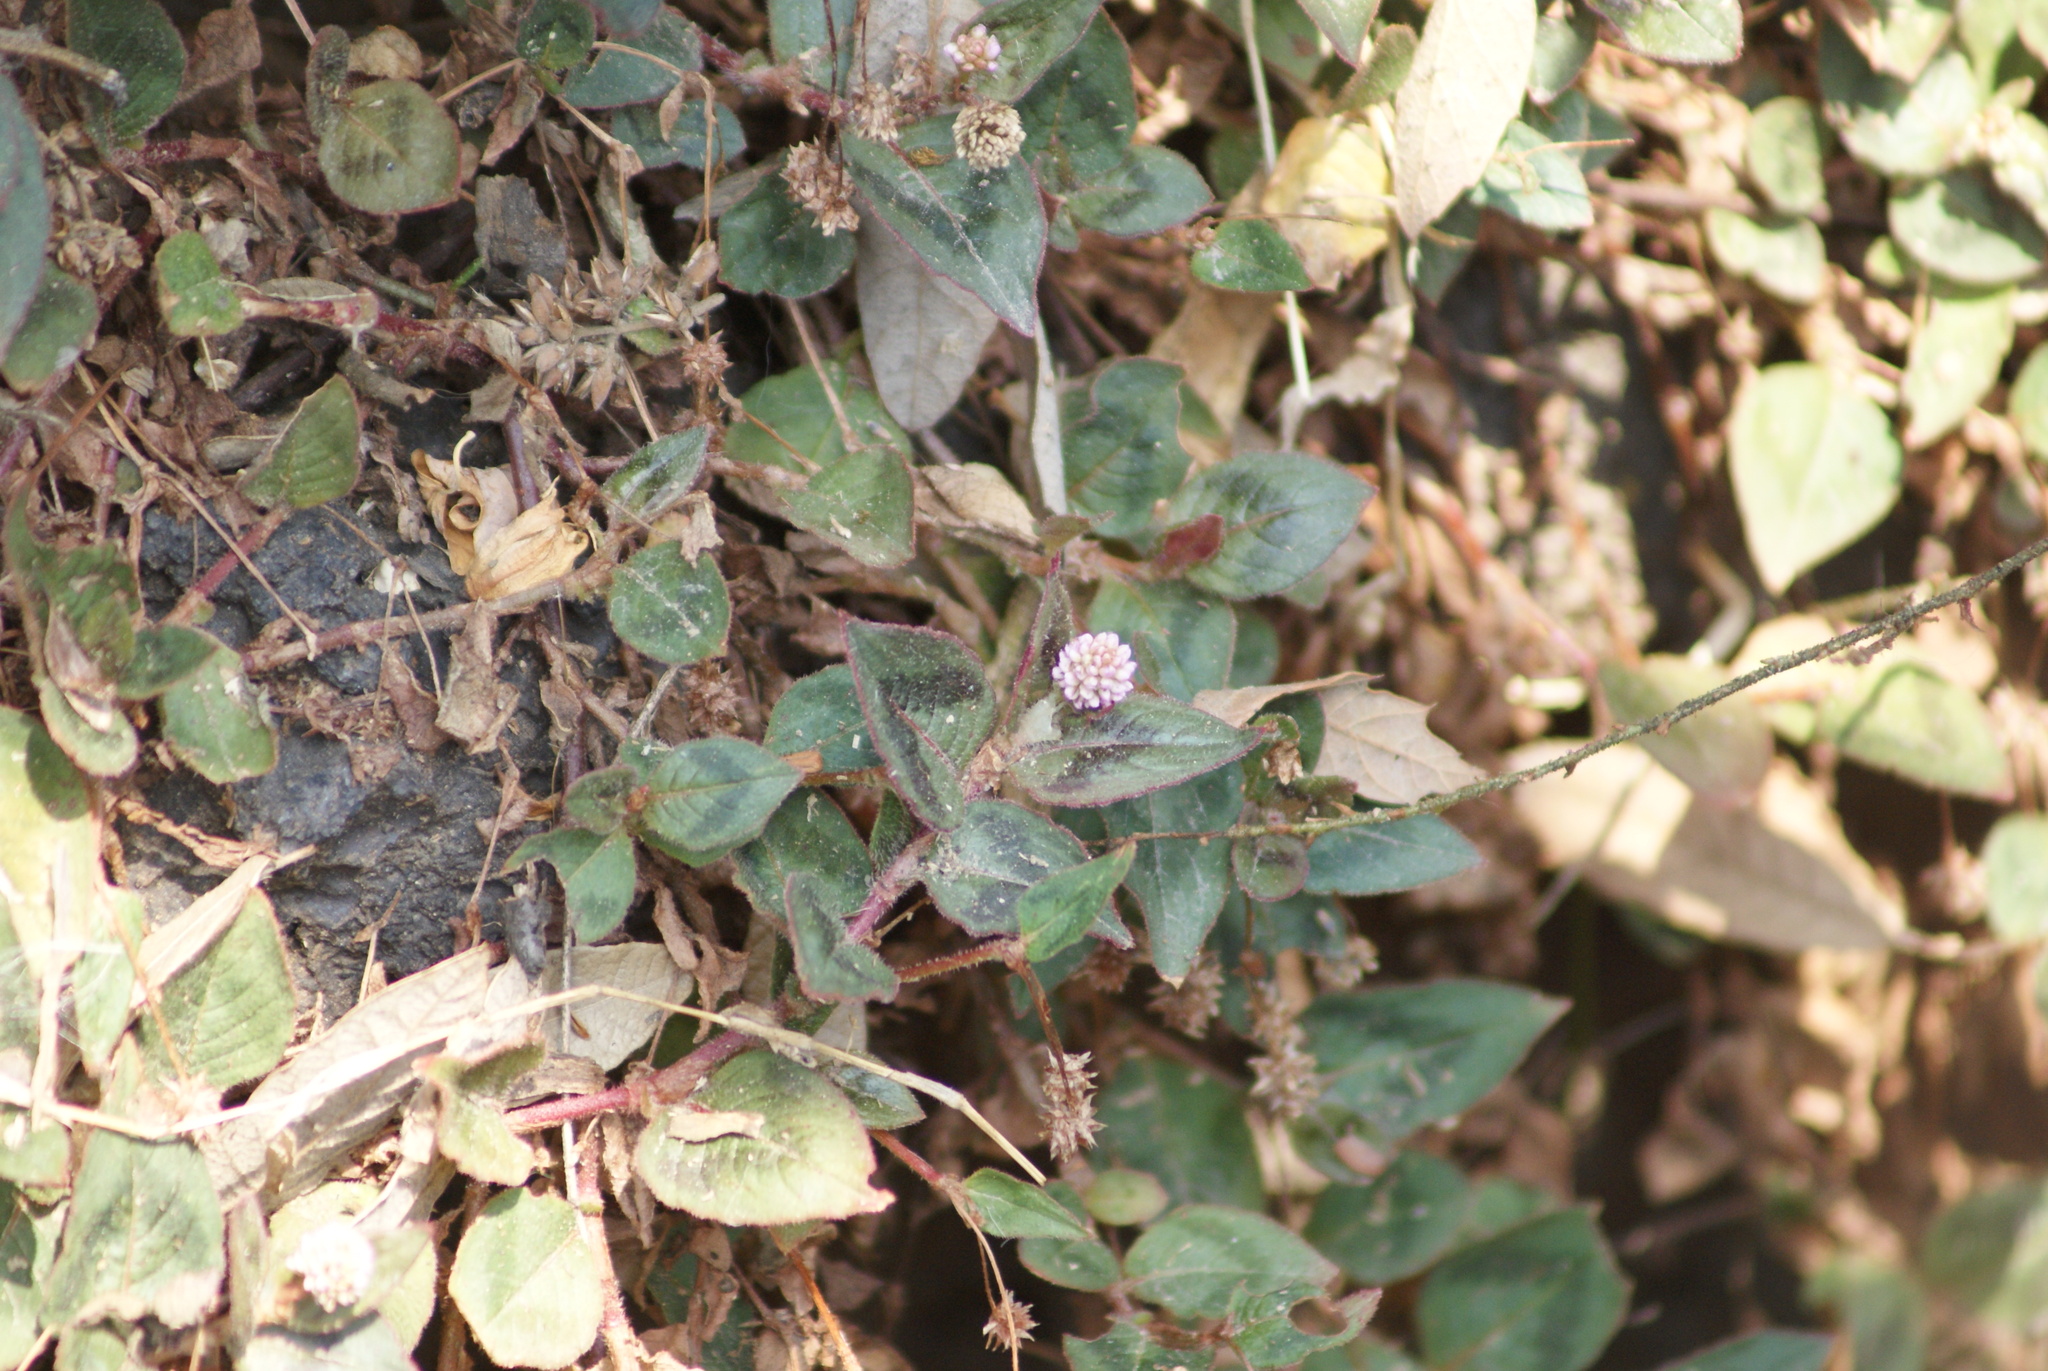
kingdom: Plantae
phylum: Tracheophyta
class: Magnoliopsida
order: Caryophyllales
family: Polygonaceae
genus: Persicaria
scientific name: Persicaria capitata
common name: Pinkhead smartweed
